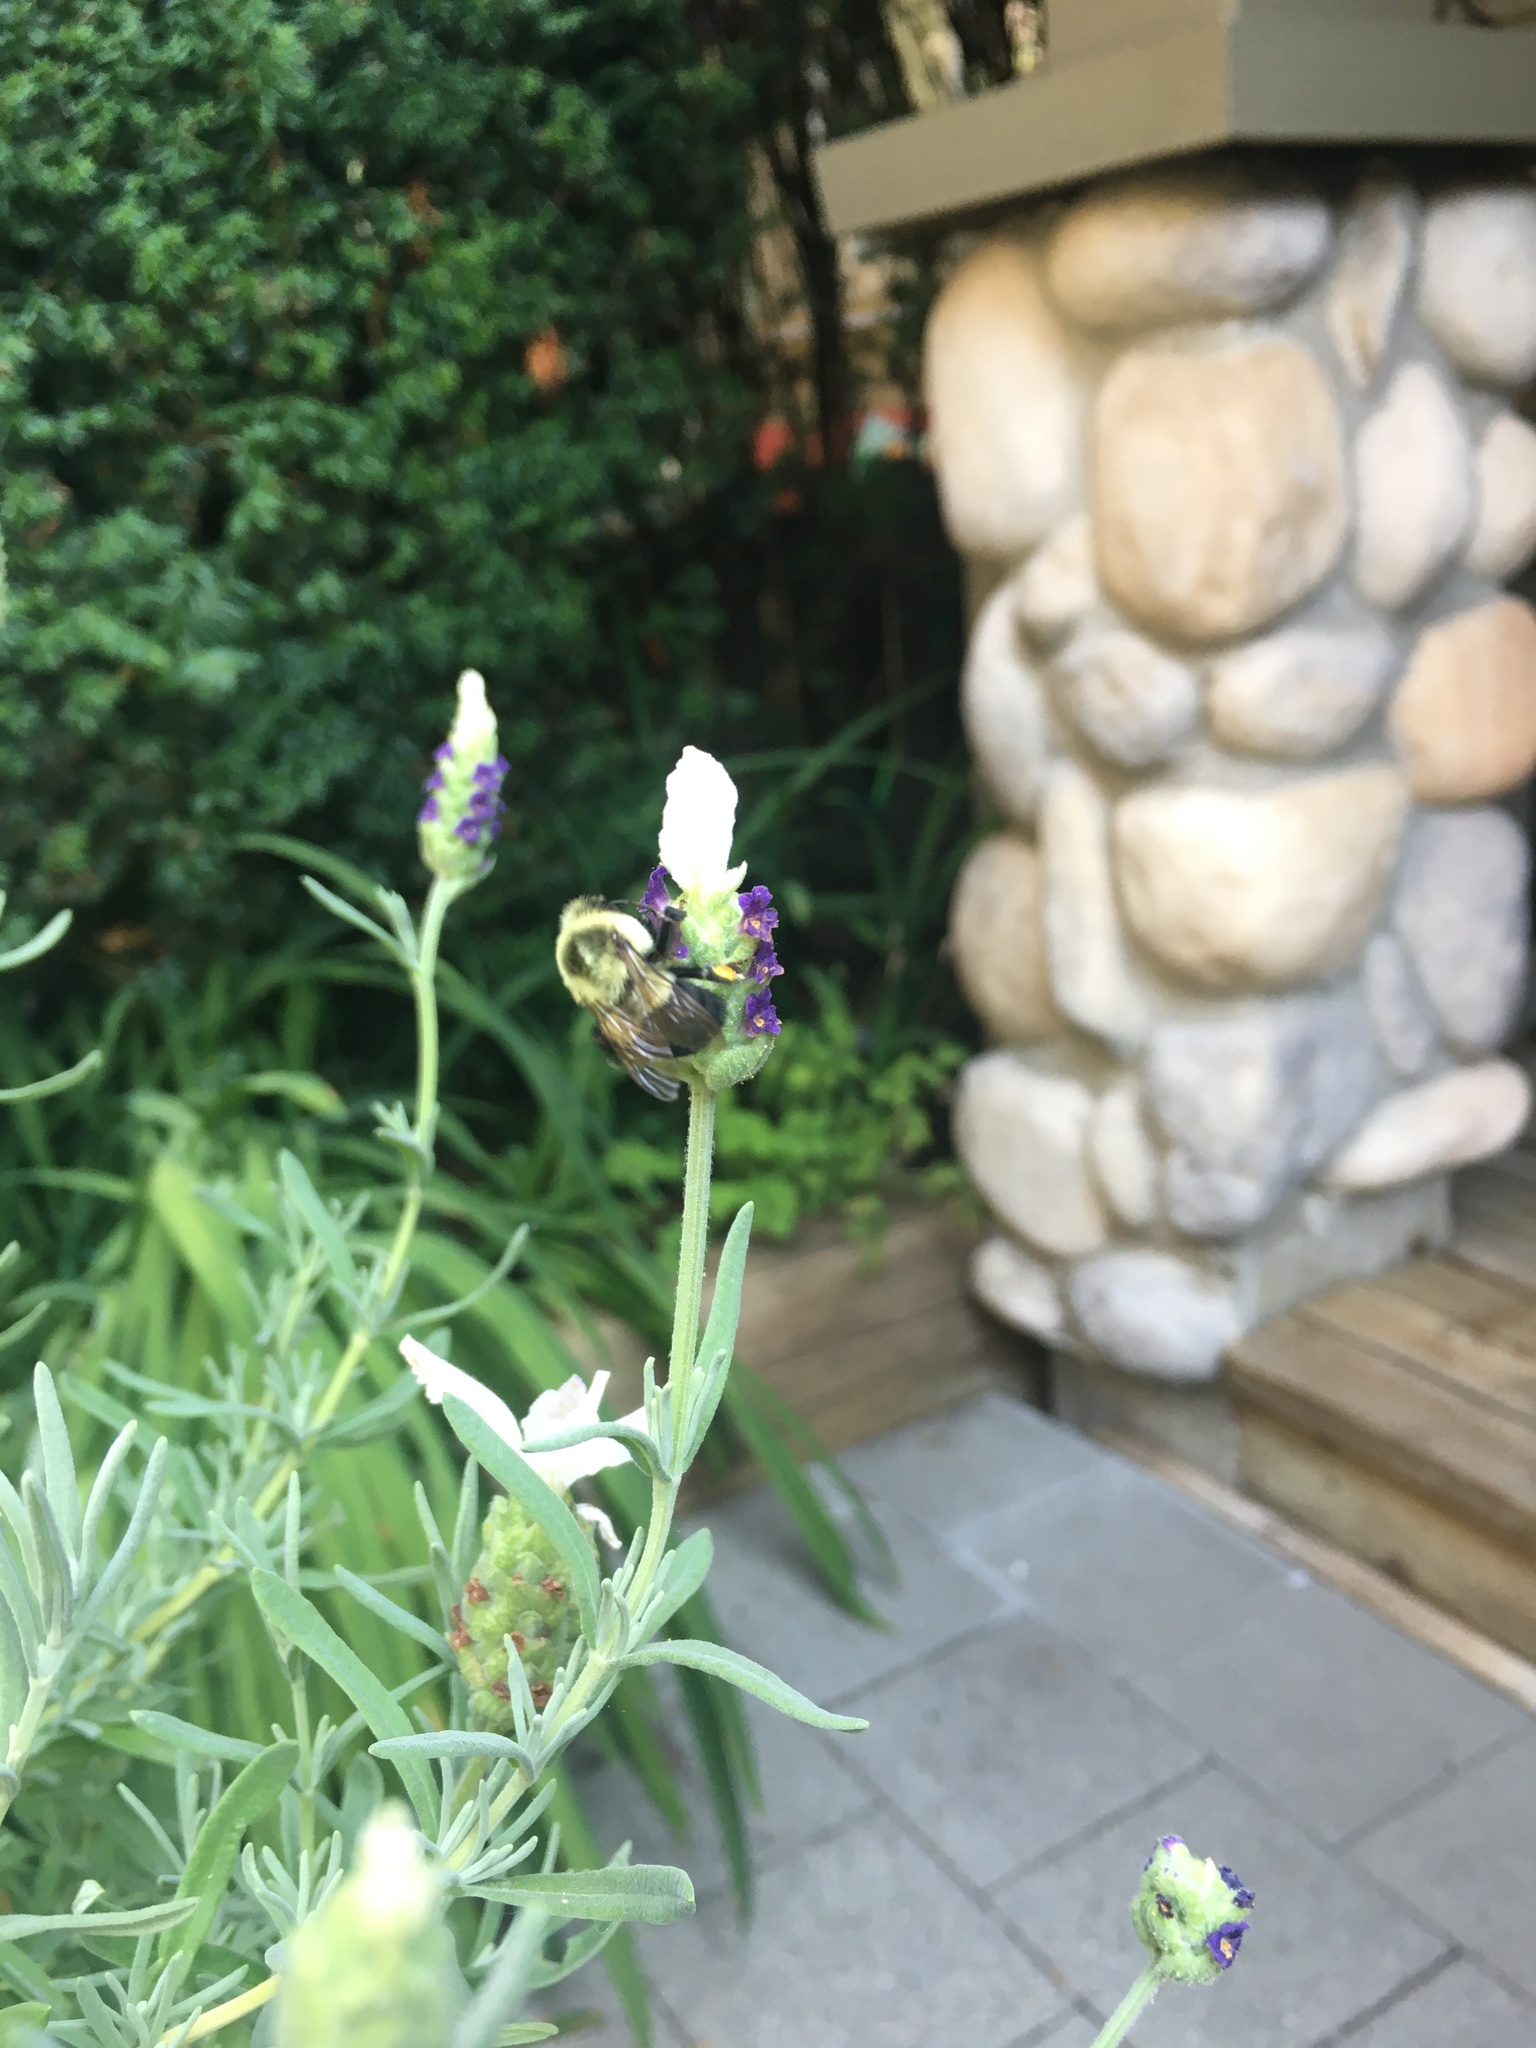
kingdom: Animalia
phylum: Arthropoda
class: Insecta
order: Hymenoptera
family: Apidae
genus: Bombus
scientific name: Bombus impatiens
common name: Common eastern bumble bee
